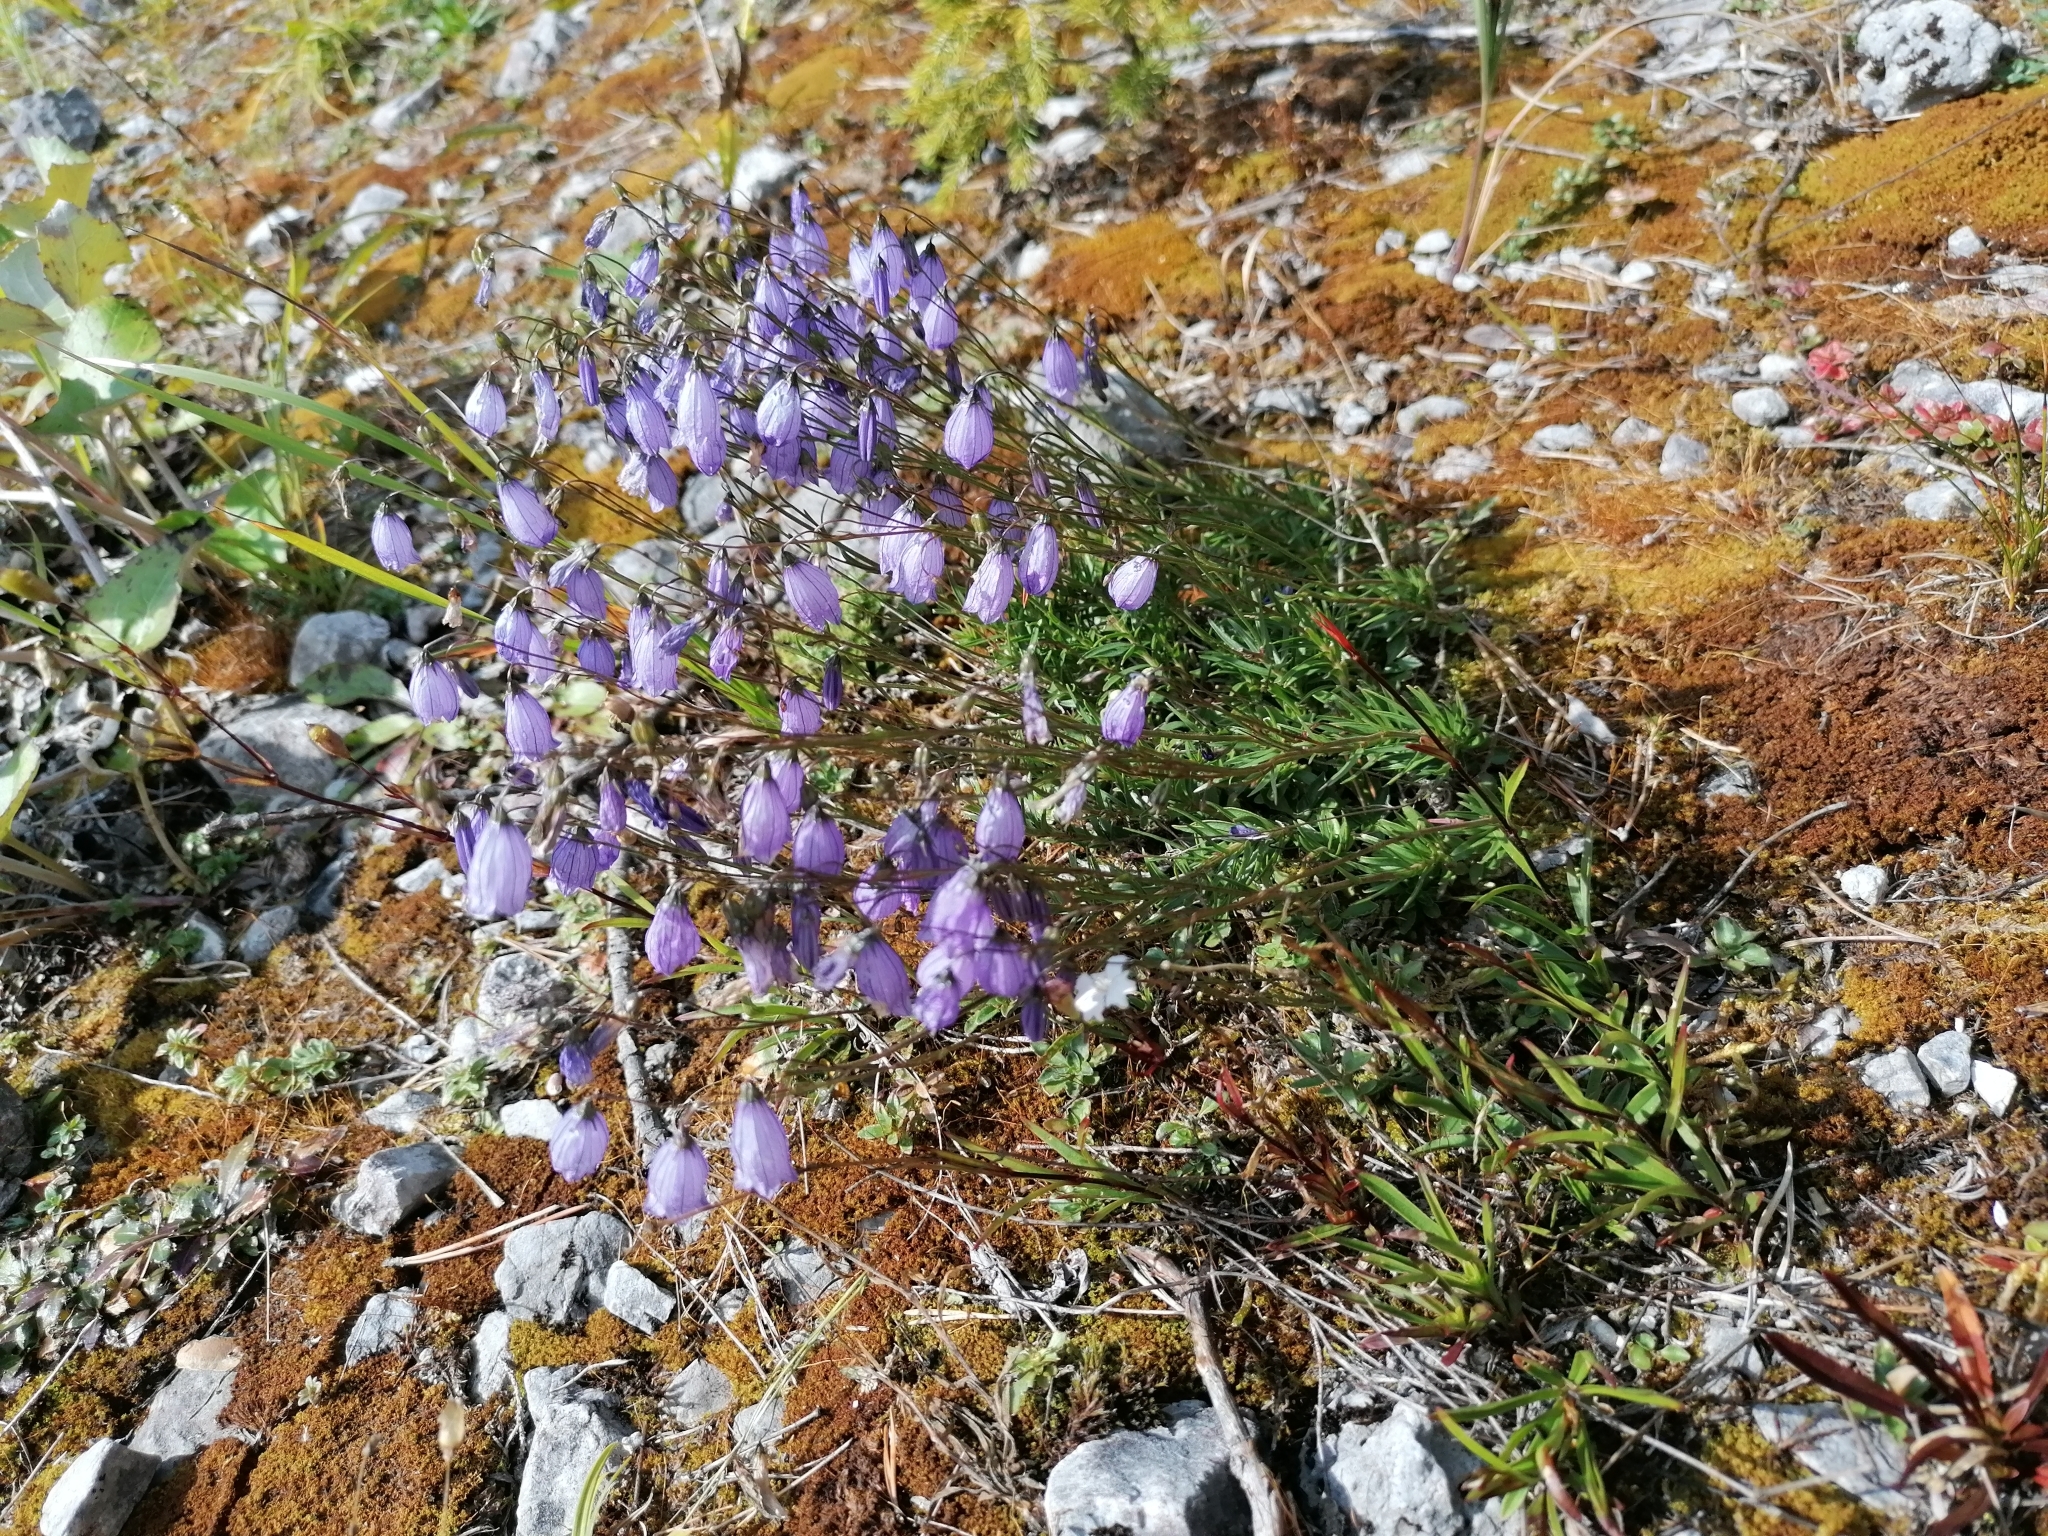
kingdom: Plantae
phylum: Tracheophyta
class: Magnoliopsida
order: Asterales
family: Campanulaceae
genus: Campanula
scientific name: Campanula cespitosa
